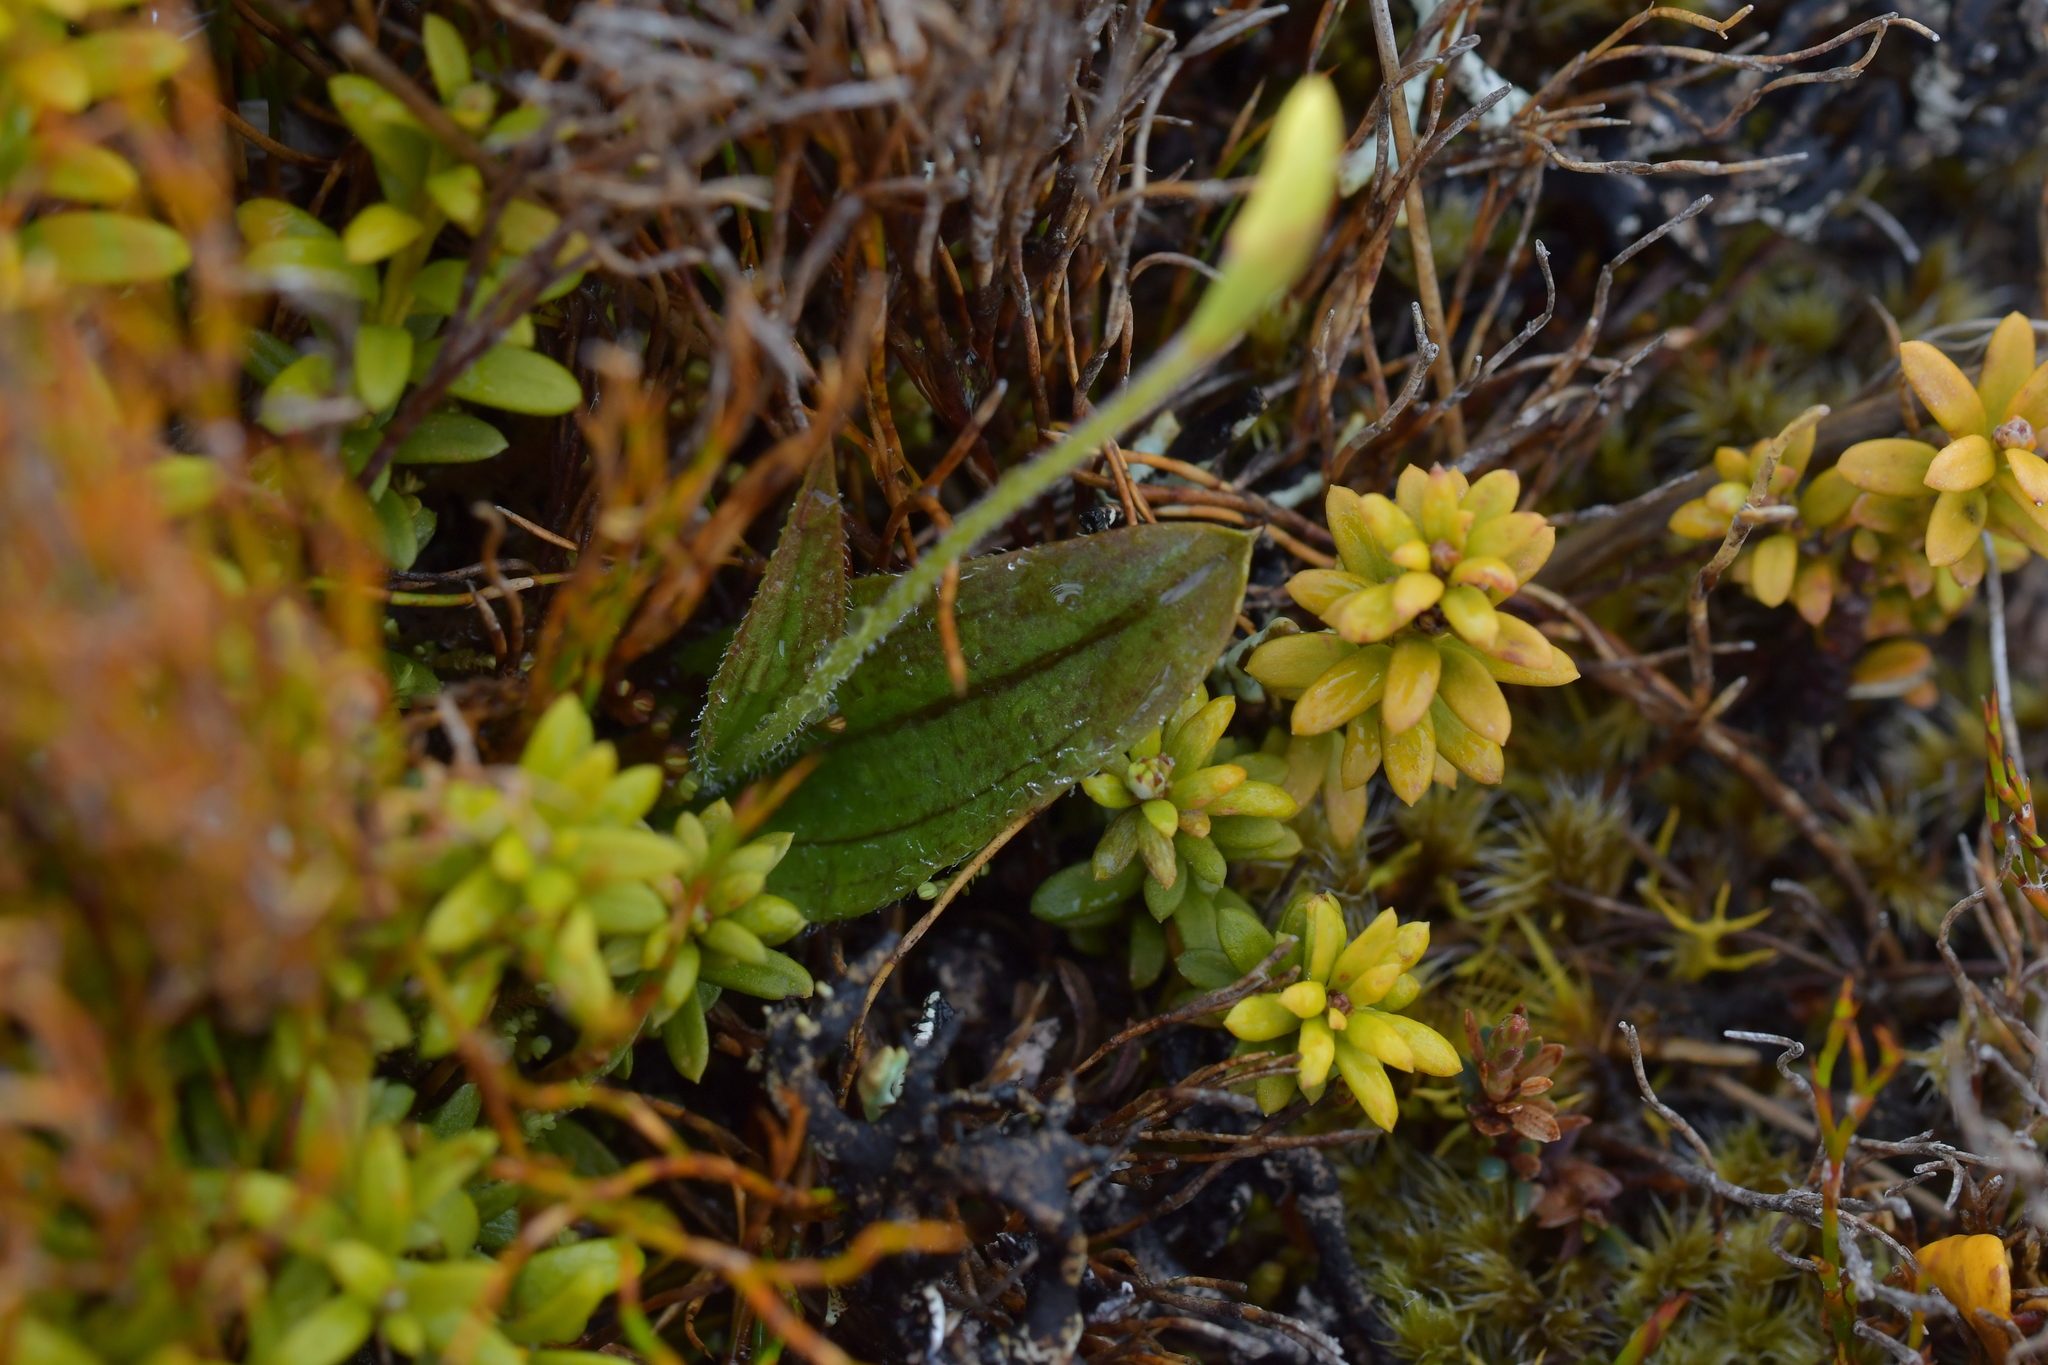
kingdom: Plantae
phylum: Tracheophyta
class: Liliopsida
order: Asparagales
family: Orchidaceae
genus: Aporostylis
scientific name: Aporostylis bifolia
